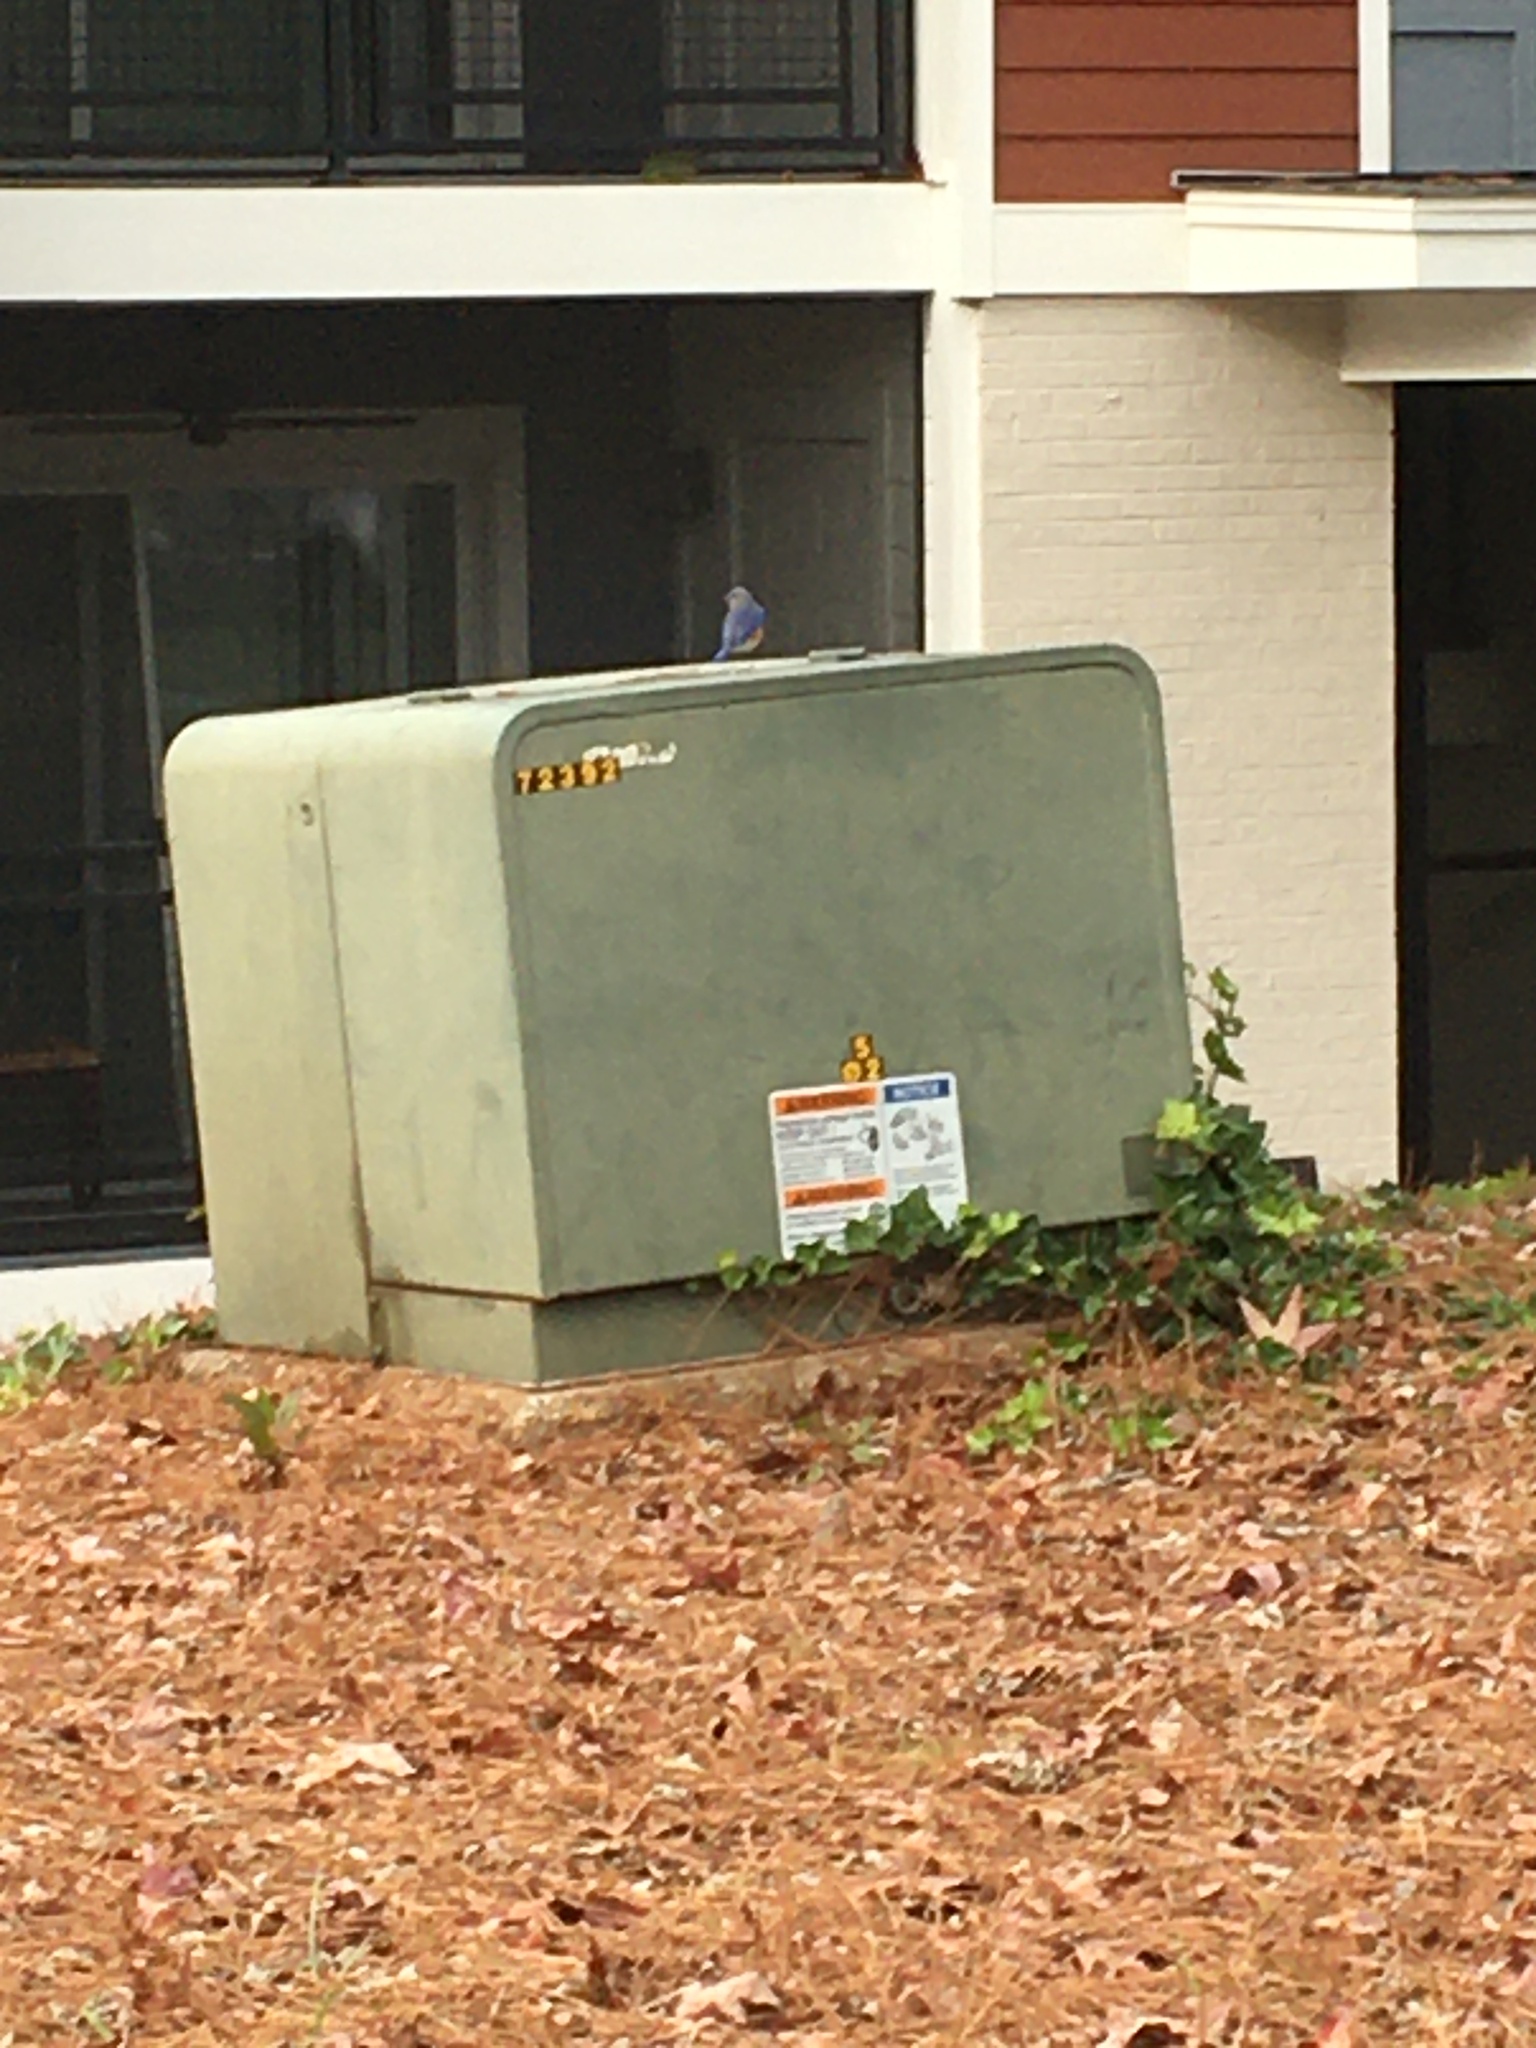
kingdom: Animalia
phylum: Chordata
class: Aves
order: Passeriformes
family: Turdidae
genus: Sialia
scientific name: Sialia sialis
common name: Eastern bluebird
